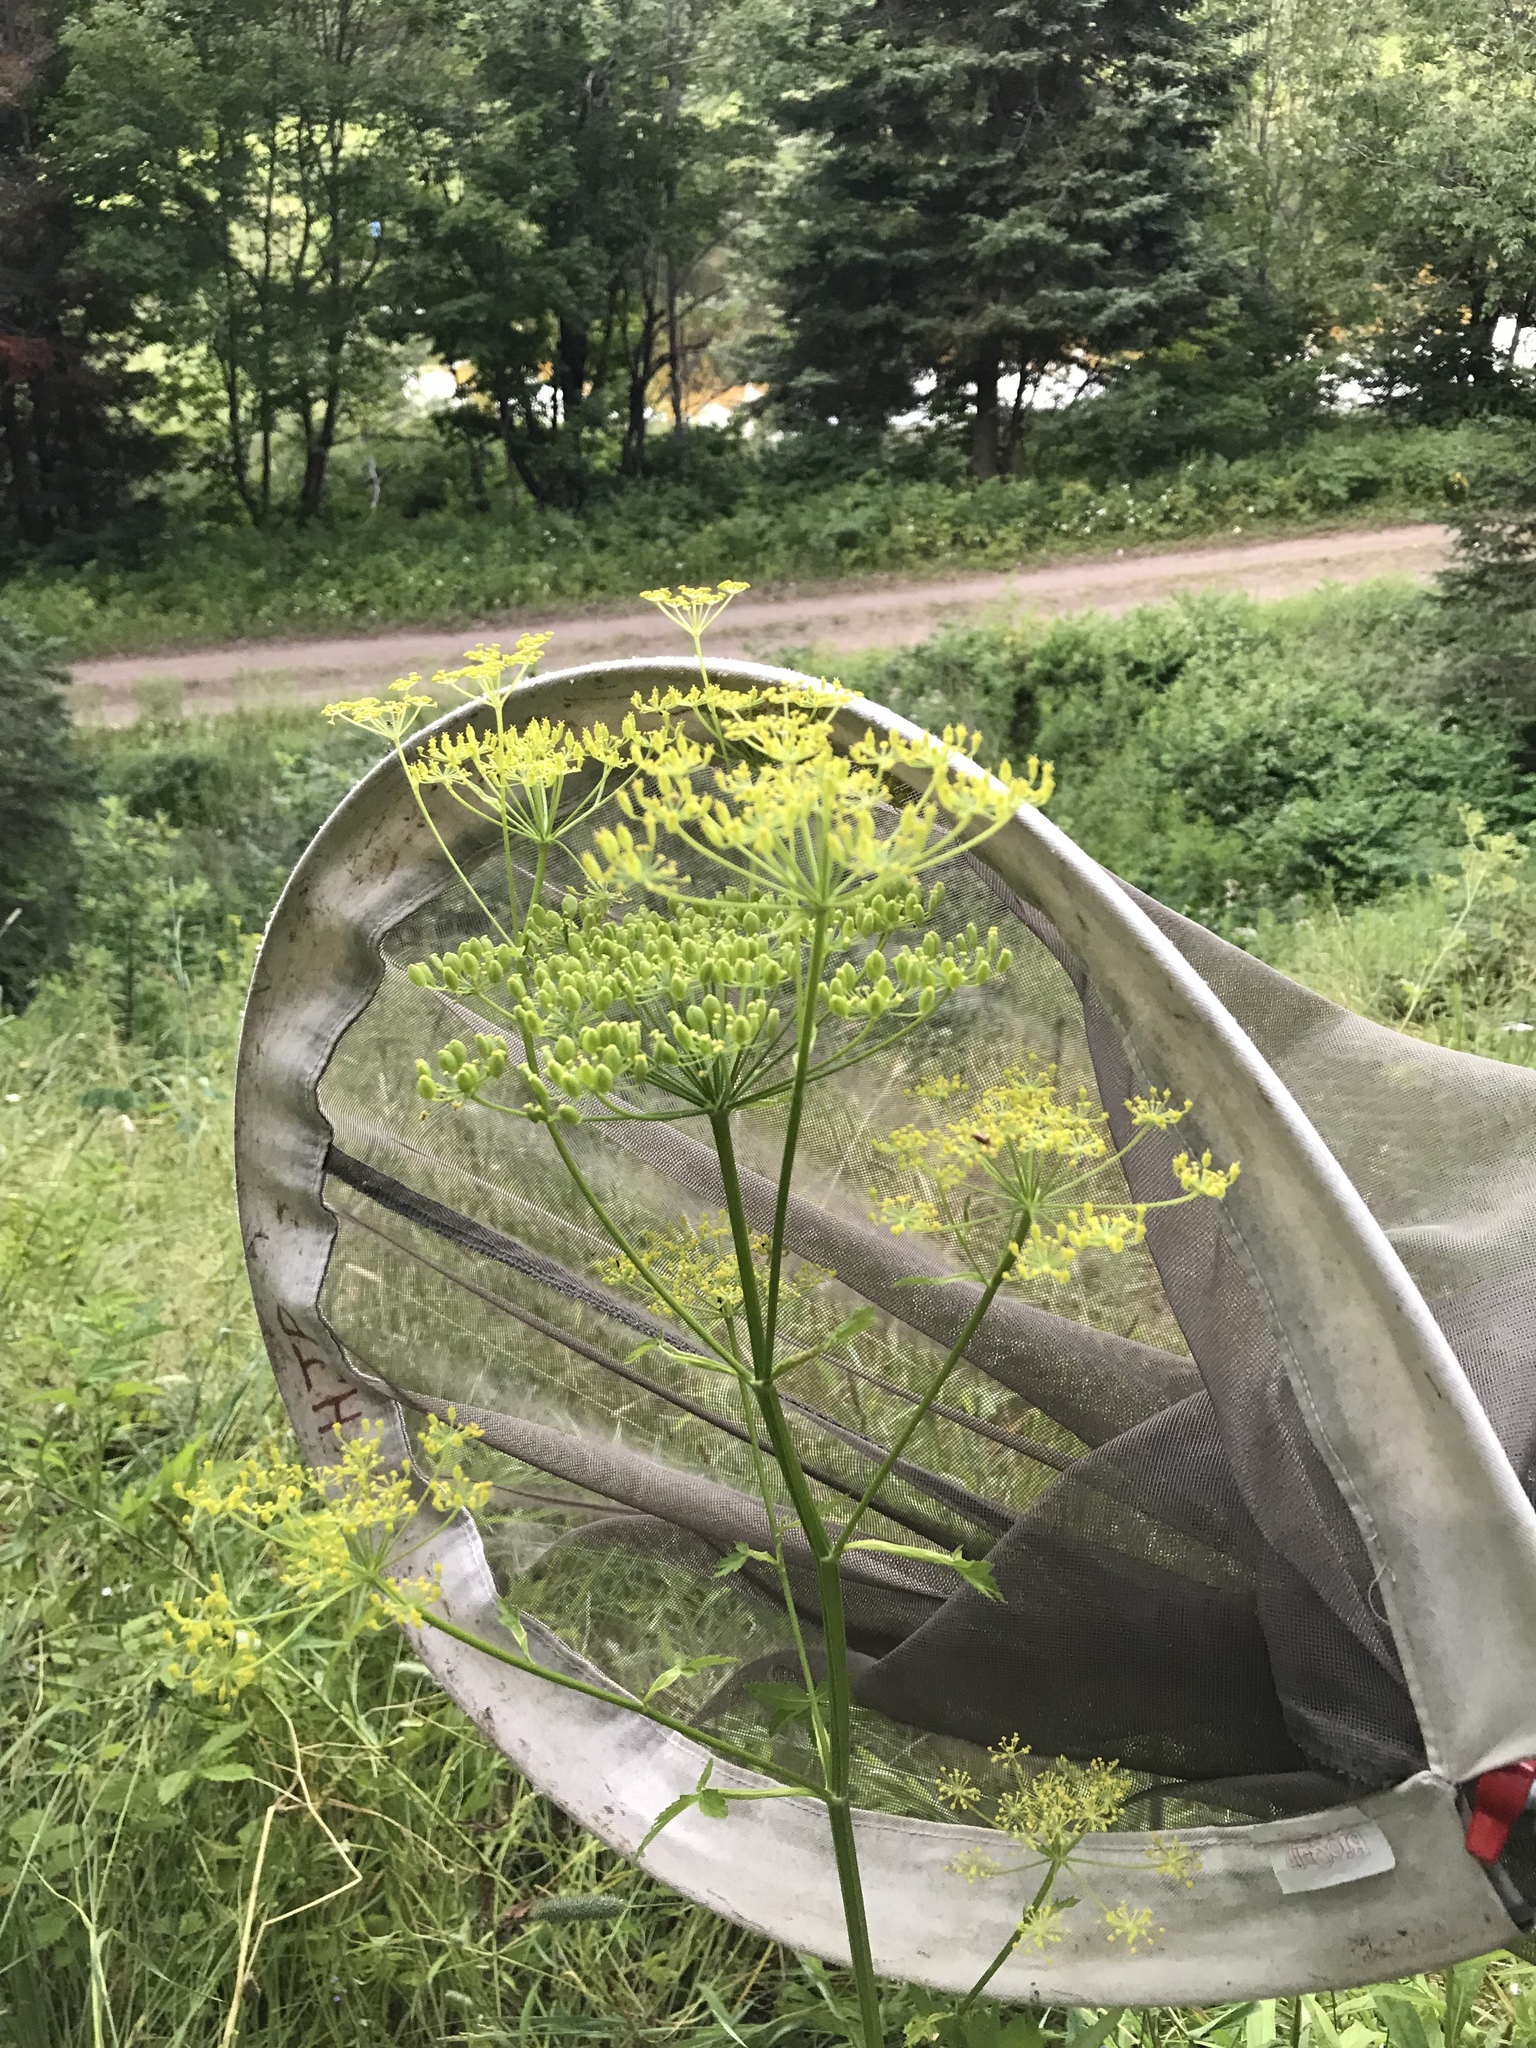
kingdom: Plantae
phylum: Tracheophyta
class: Magnoliopsida
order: Apiales
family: Apiaceae
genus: Pastinaca
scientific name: Pastinaca sativa
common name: Wild parsnip
